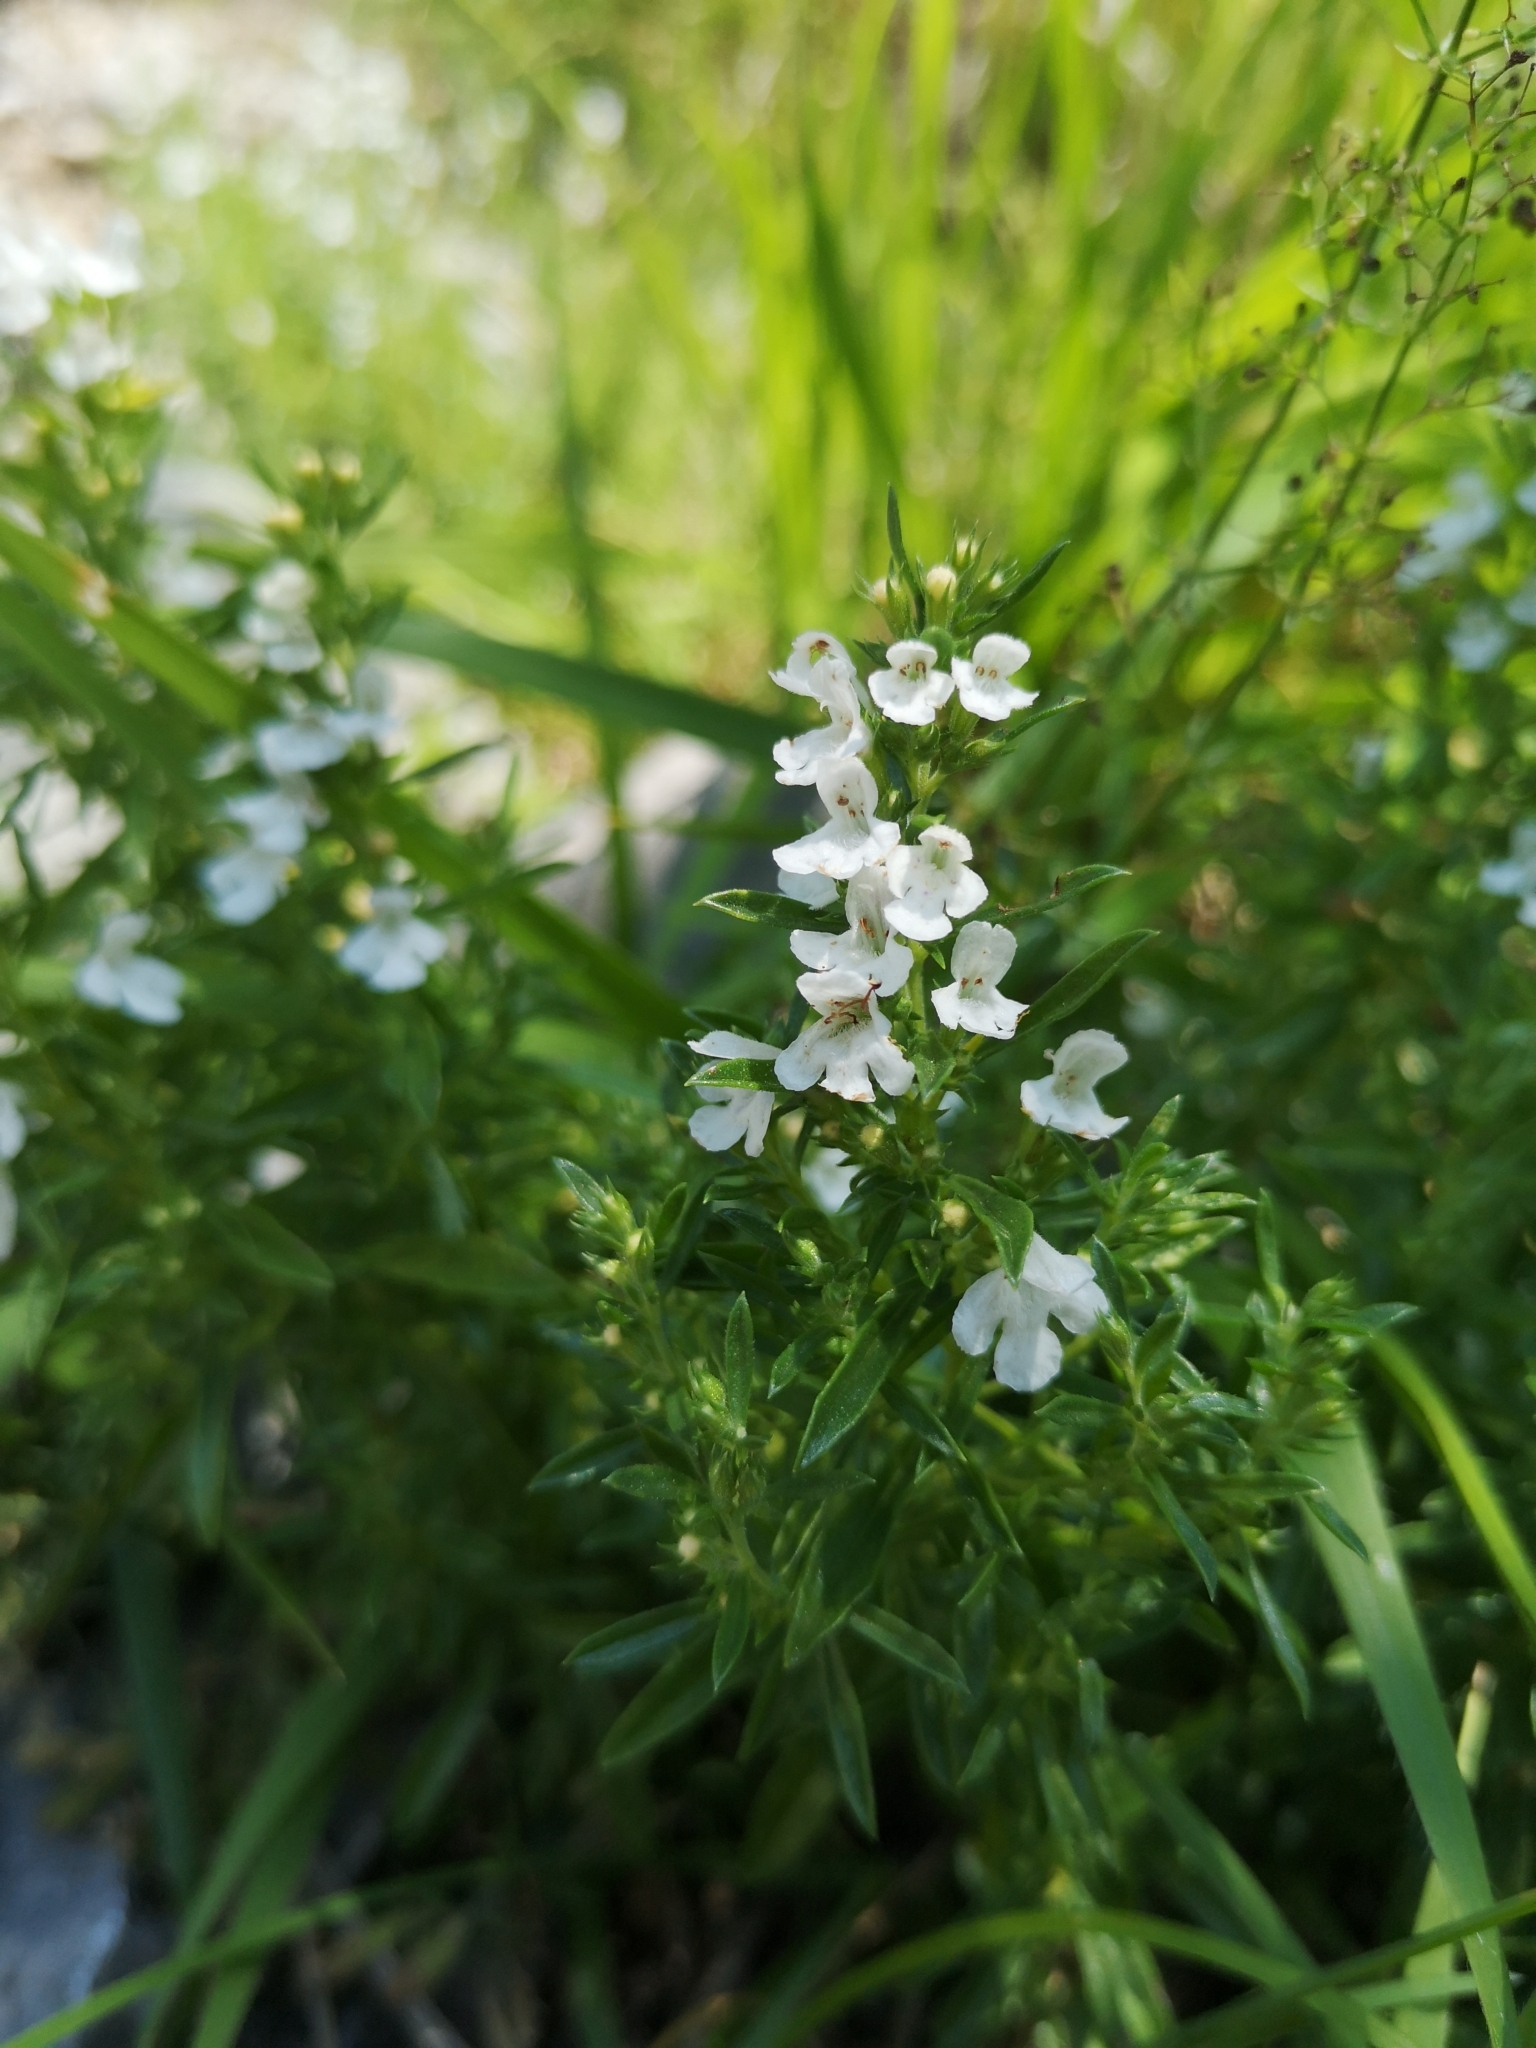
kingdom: Plantae
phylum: Tracheophyta
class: Magnoliopsida
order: Lamiales
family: Lamiaceae
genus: Satureja
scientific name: Satureja montana
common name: Winter savory
